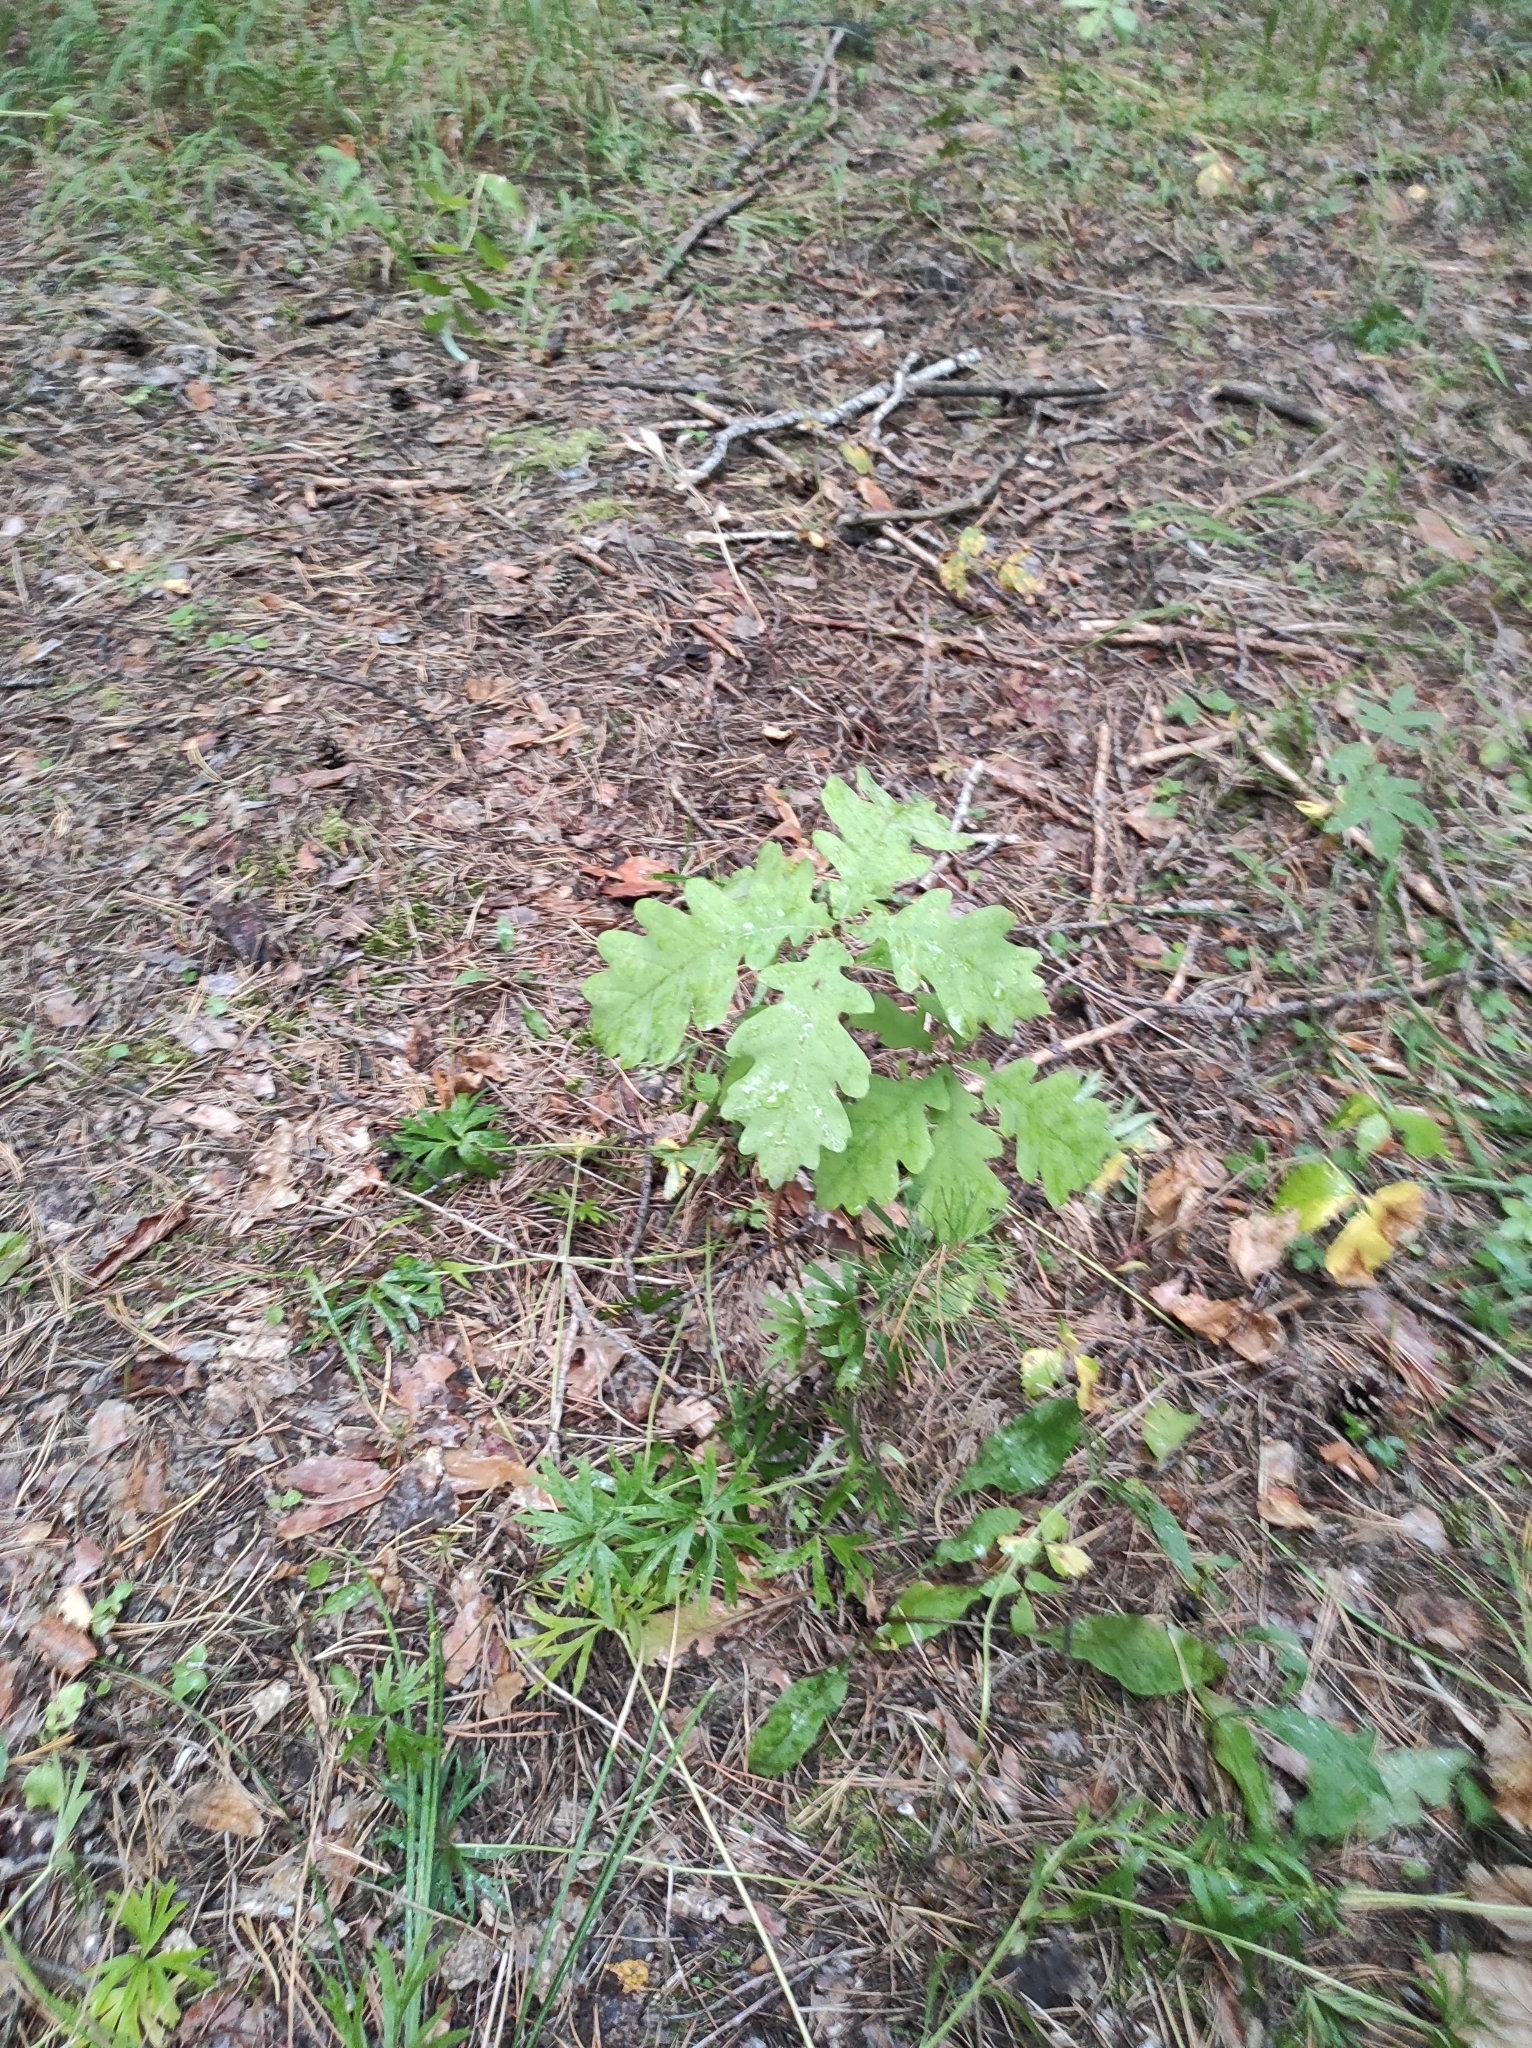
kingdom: Plantae
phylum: Tracheophyta
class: Magnoliopsida
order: Fagales
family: Fagaceae
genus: Quercus
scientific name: Quercus robur
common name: Pedunculate oak
